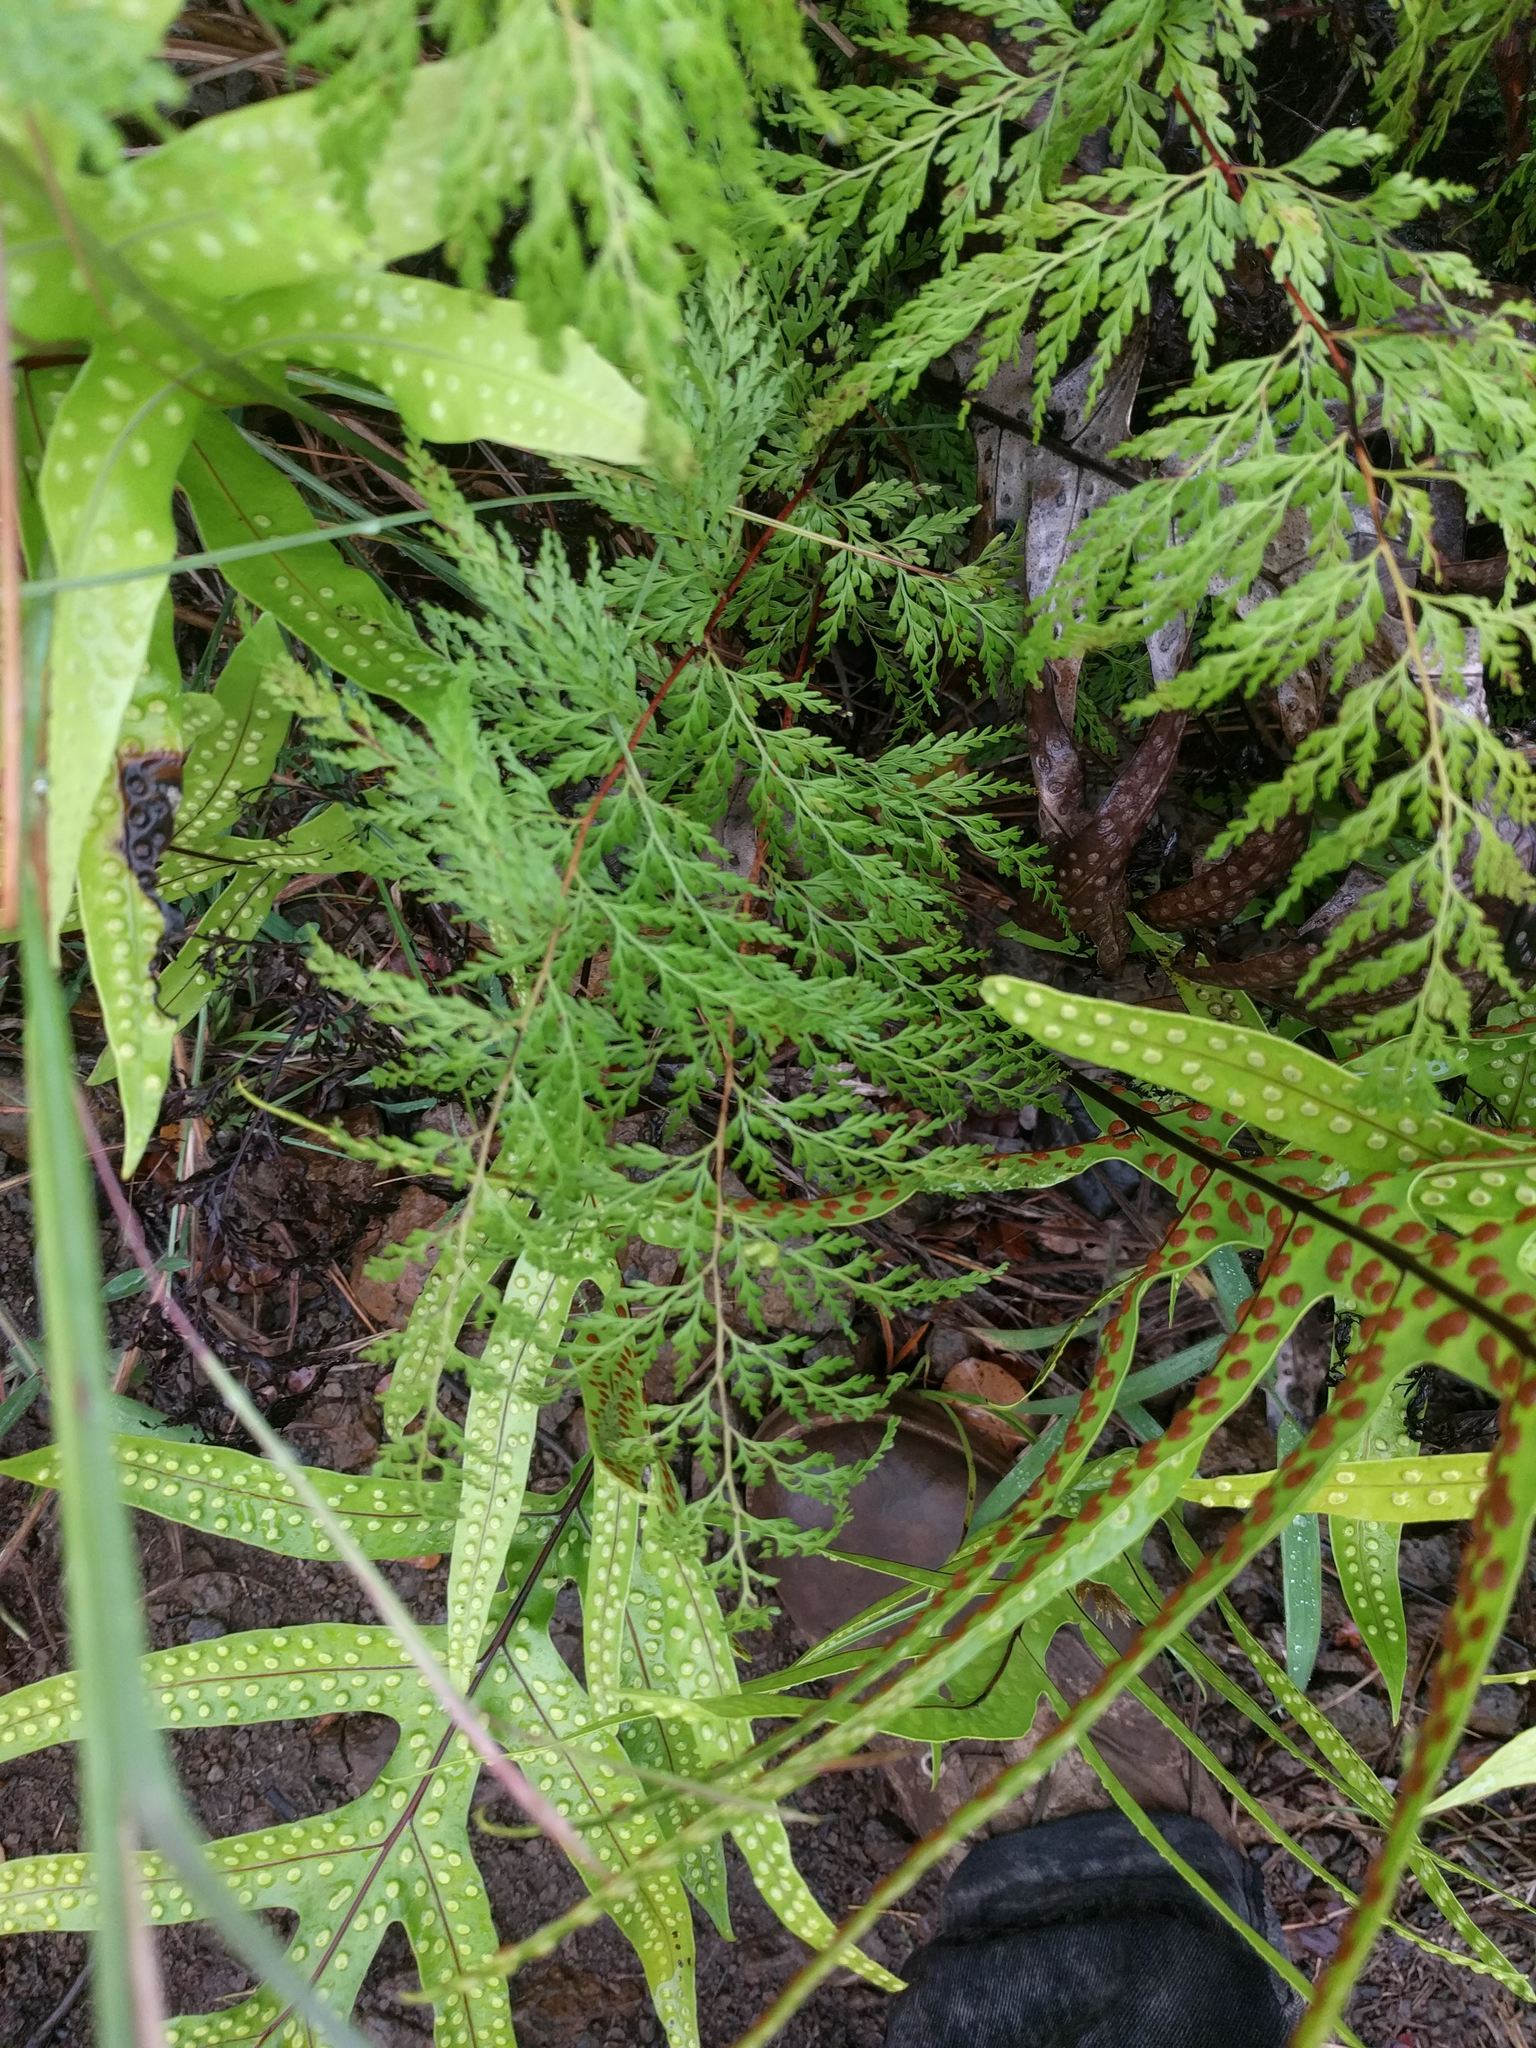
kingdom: Plantae
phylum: Tracheophyta
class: Polypodiopsida
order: Polypodiales
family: Lindsaeaceae
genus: Odontosoria
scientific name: Odontosoria chinensis
